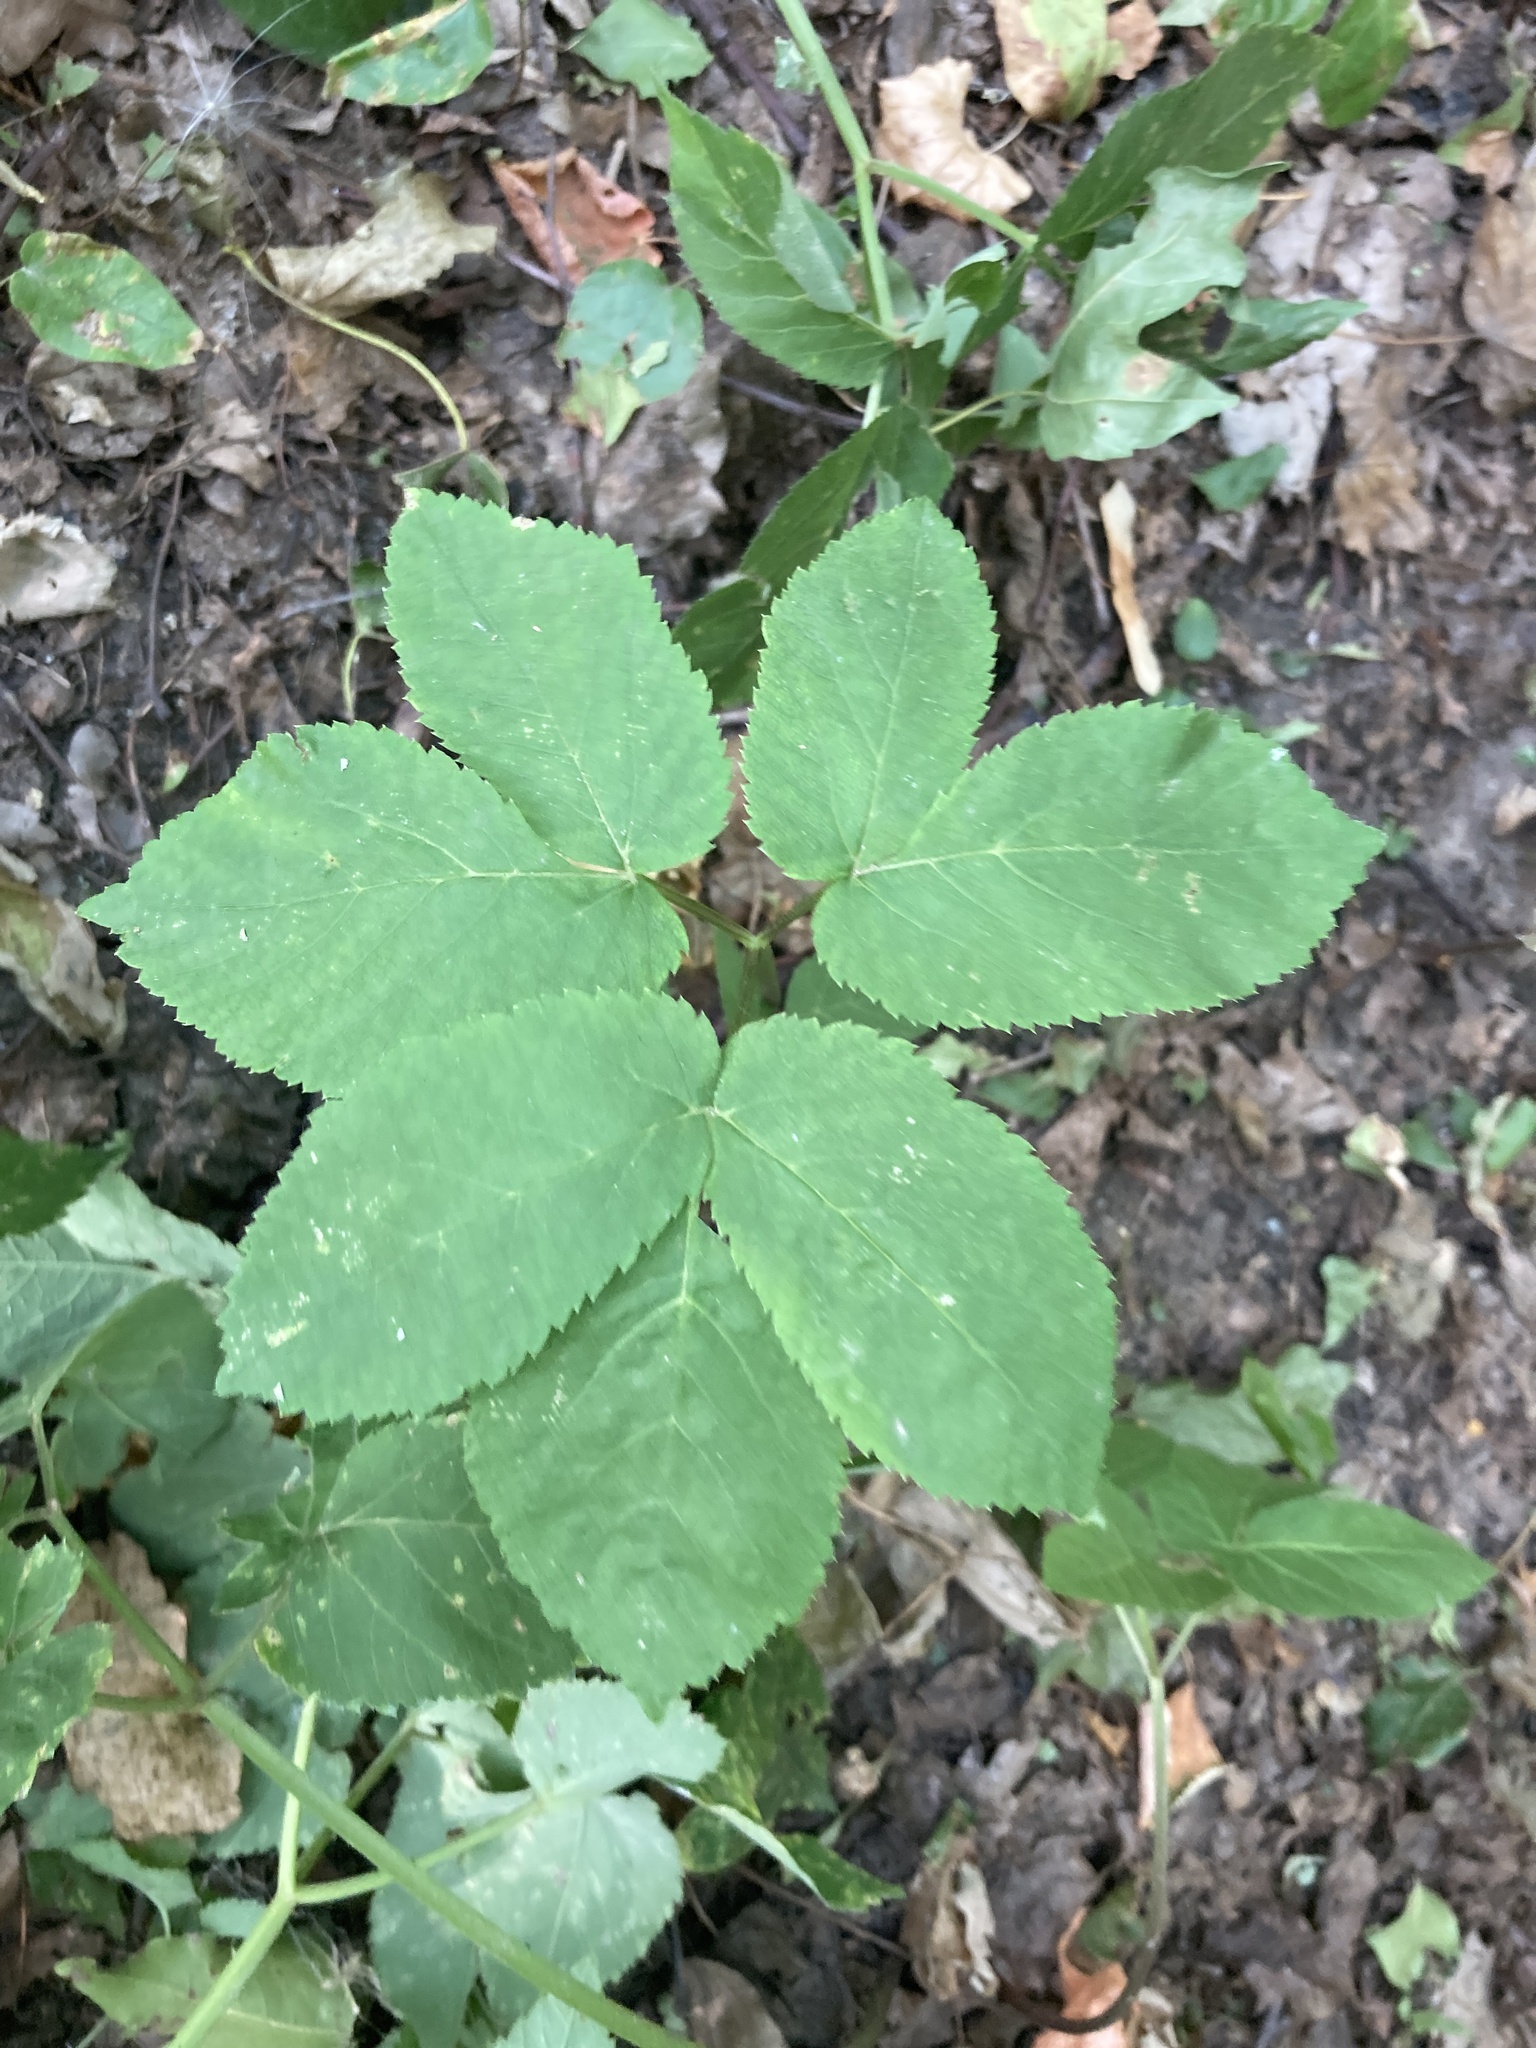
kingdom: Plantae
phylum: Tracheophyta
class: Magnoliopsida
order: Apiales
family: Apiaceae
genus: Aegopodium
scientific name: Aegopodium podagraria
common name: Ground-elder
